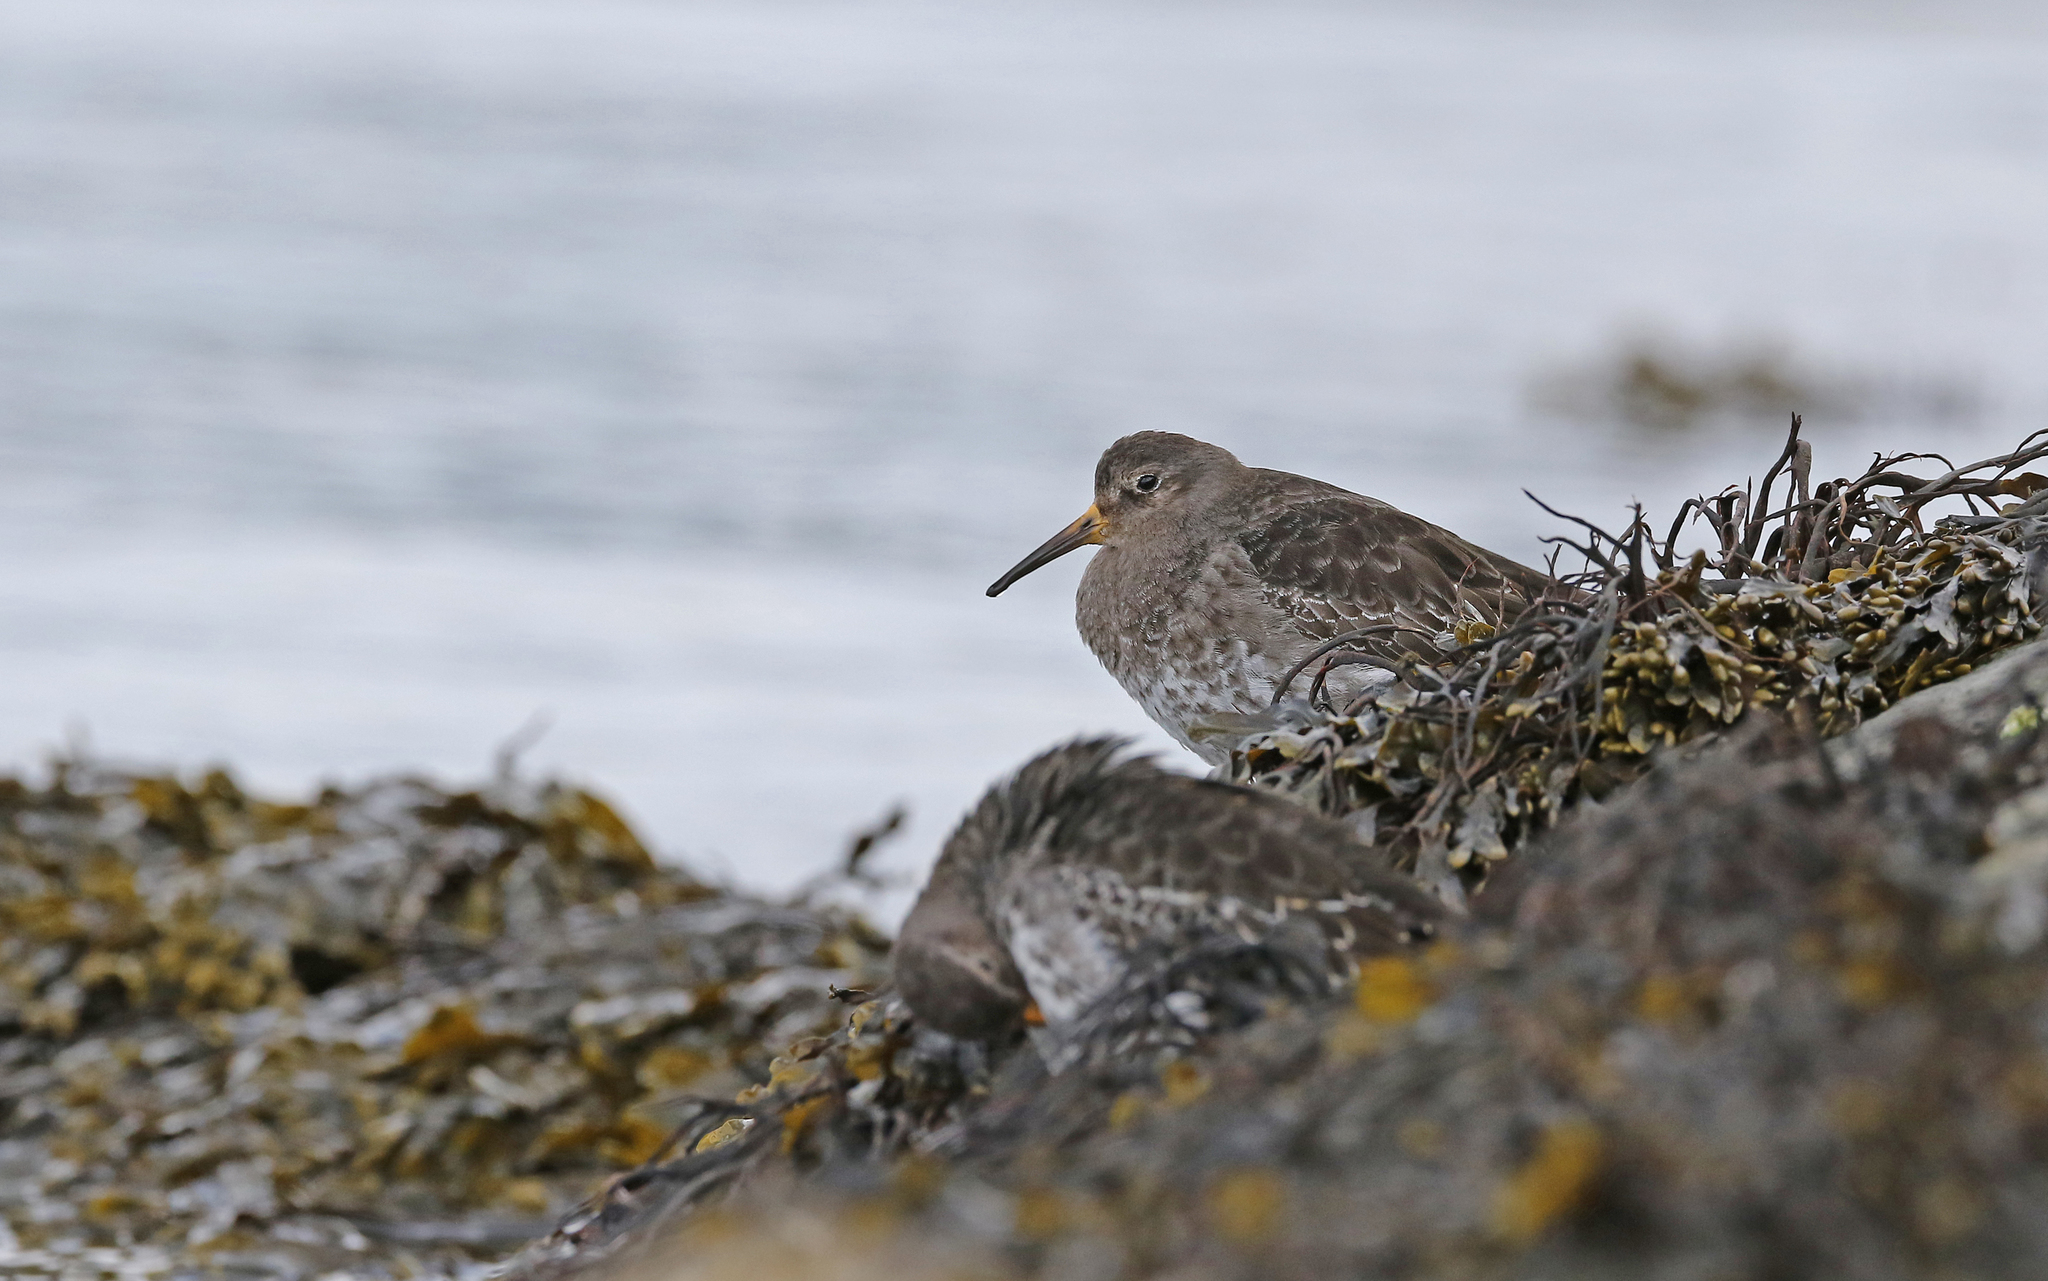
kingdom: Animalia
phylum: Chordata
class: Aves
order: Charadriiformes
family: Scolopacidae
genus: Calidris
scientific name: Calidris maritima
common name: Purple sandpiper
